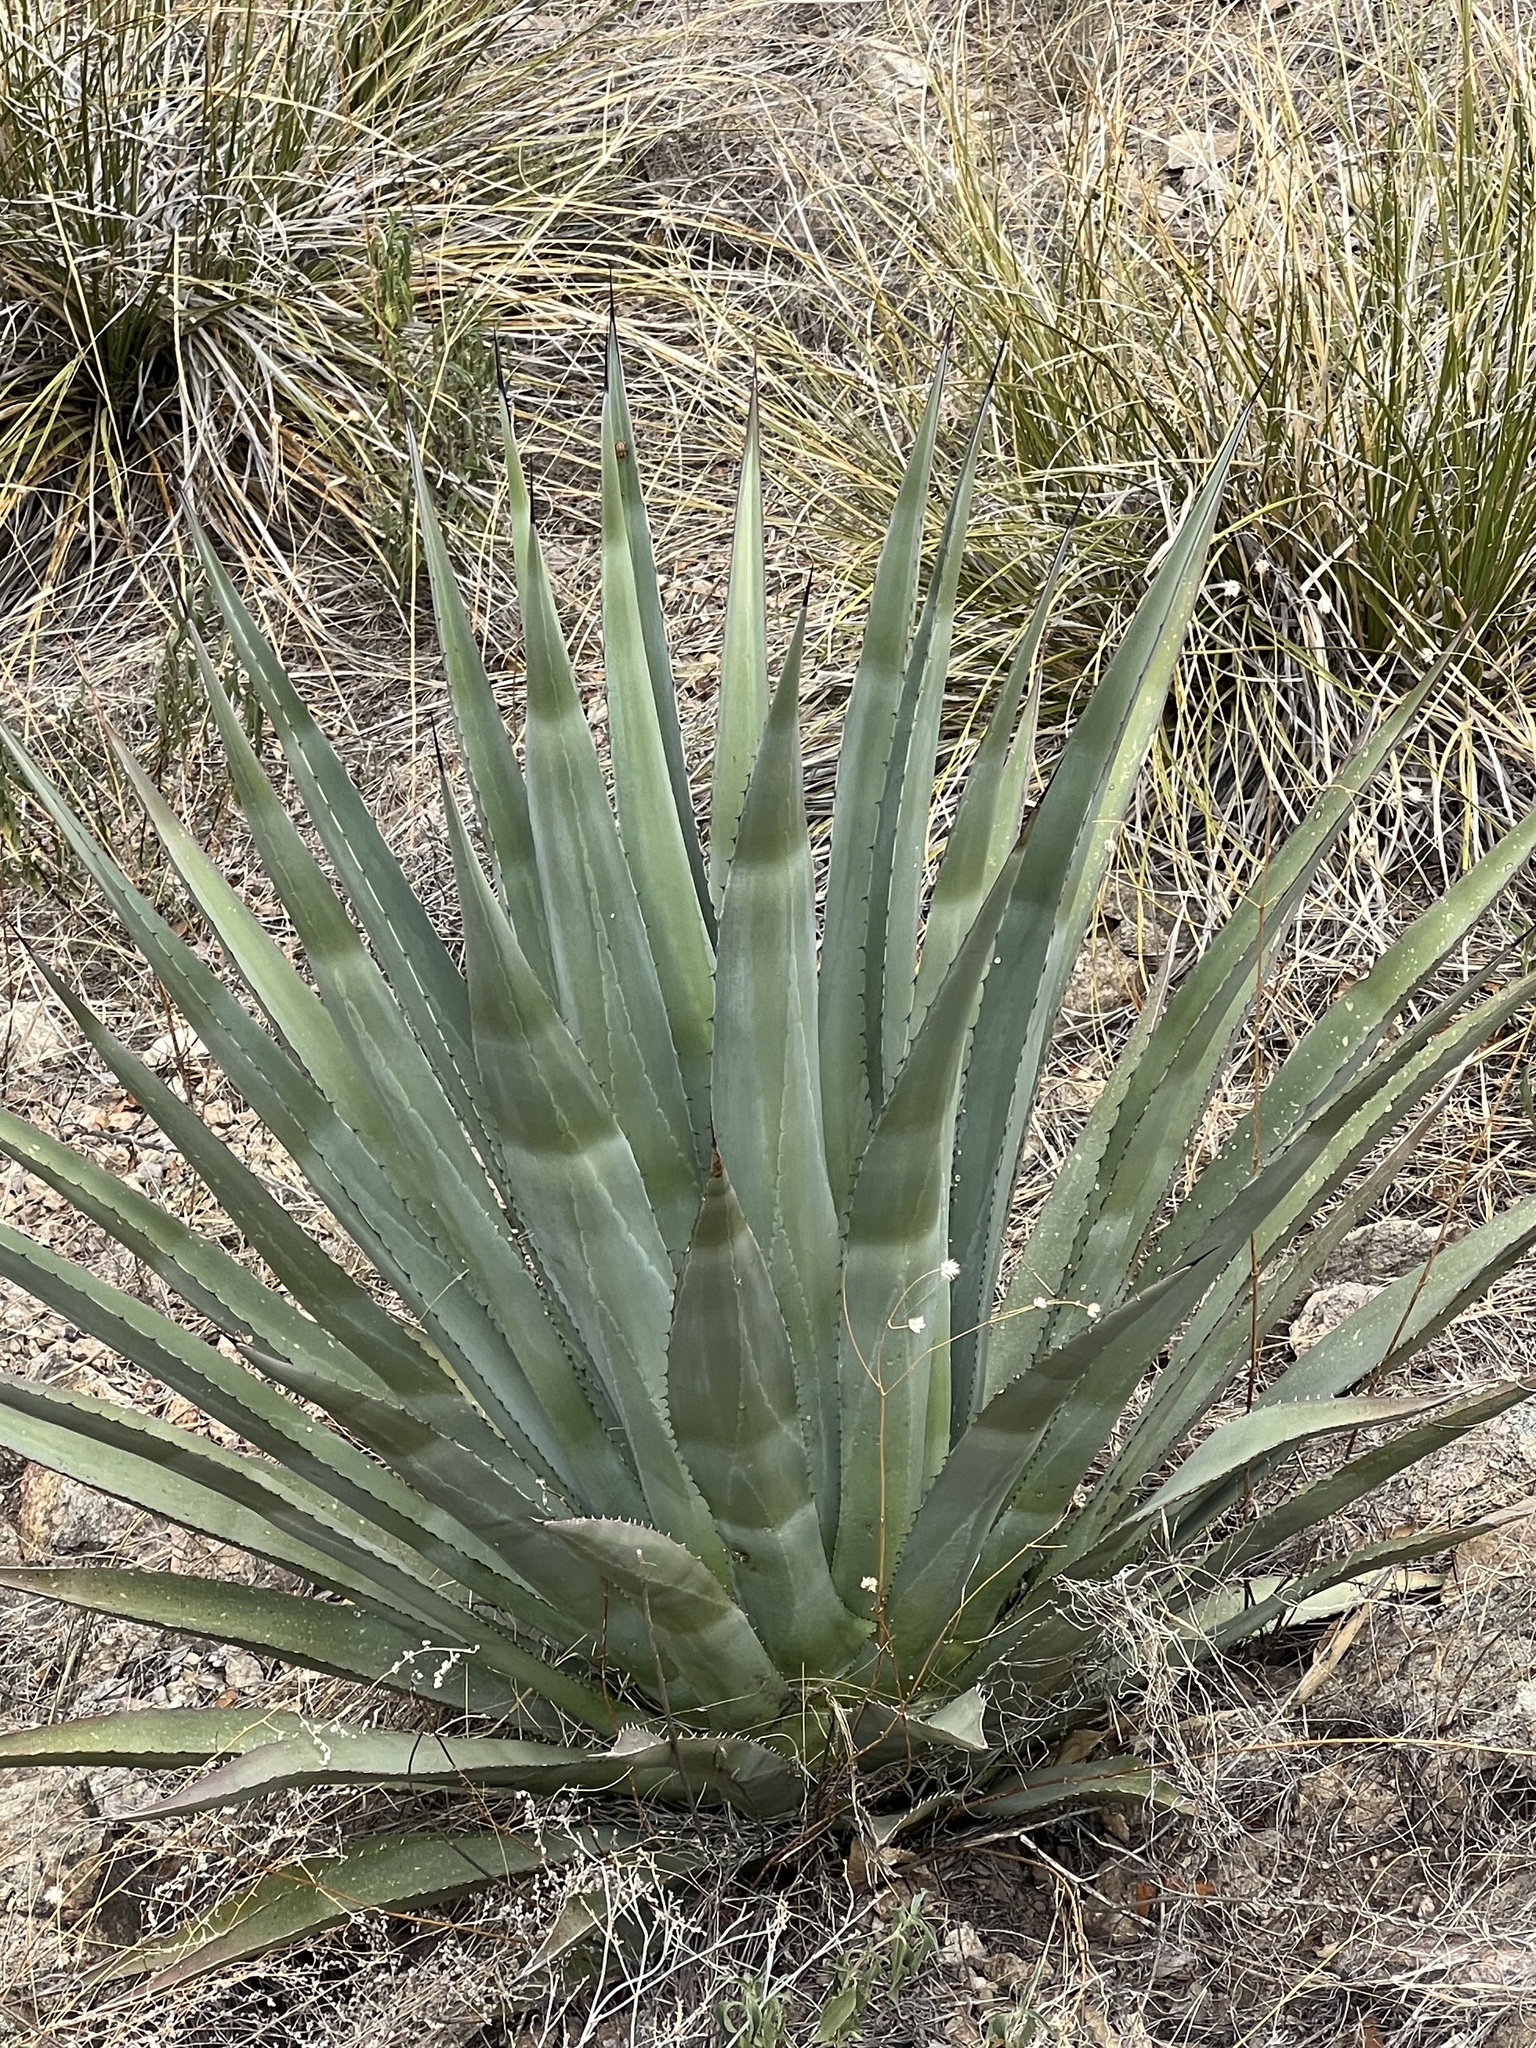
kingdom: Plantae
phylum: Tracheophyta
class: Liliopsida
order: Asparagales
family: Asparagaceae
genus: Agave
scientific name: Agave palmeri
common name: Palmer agave
